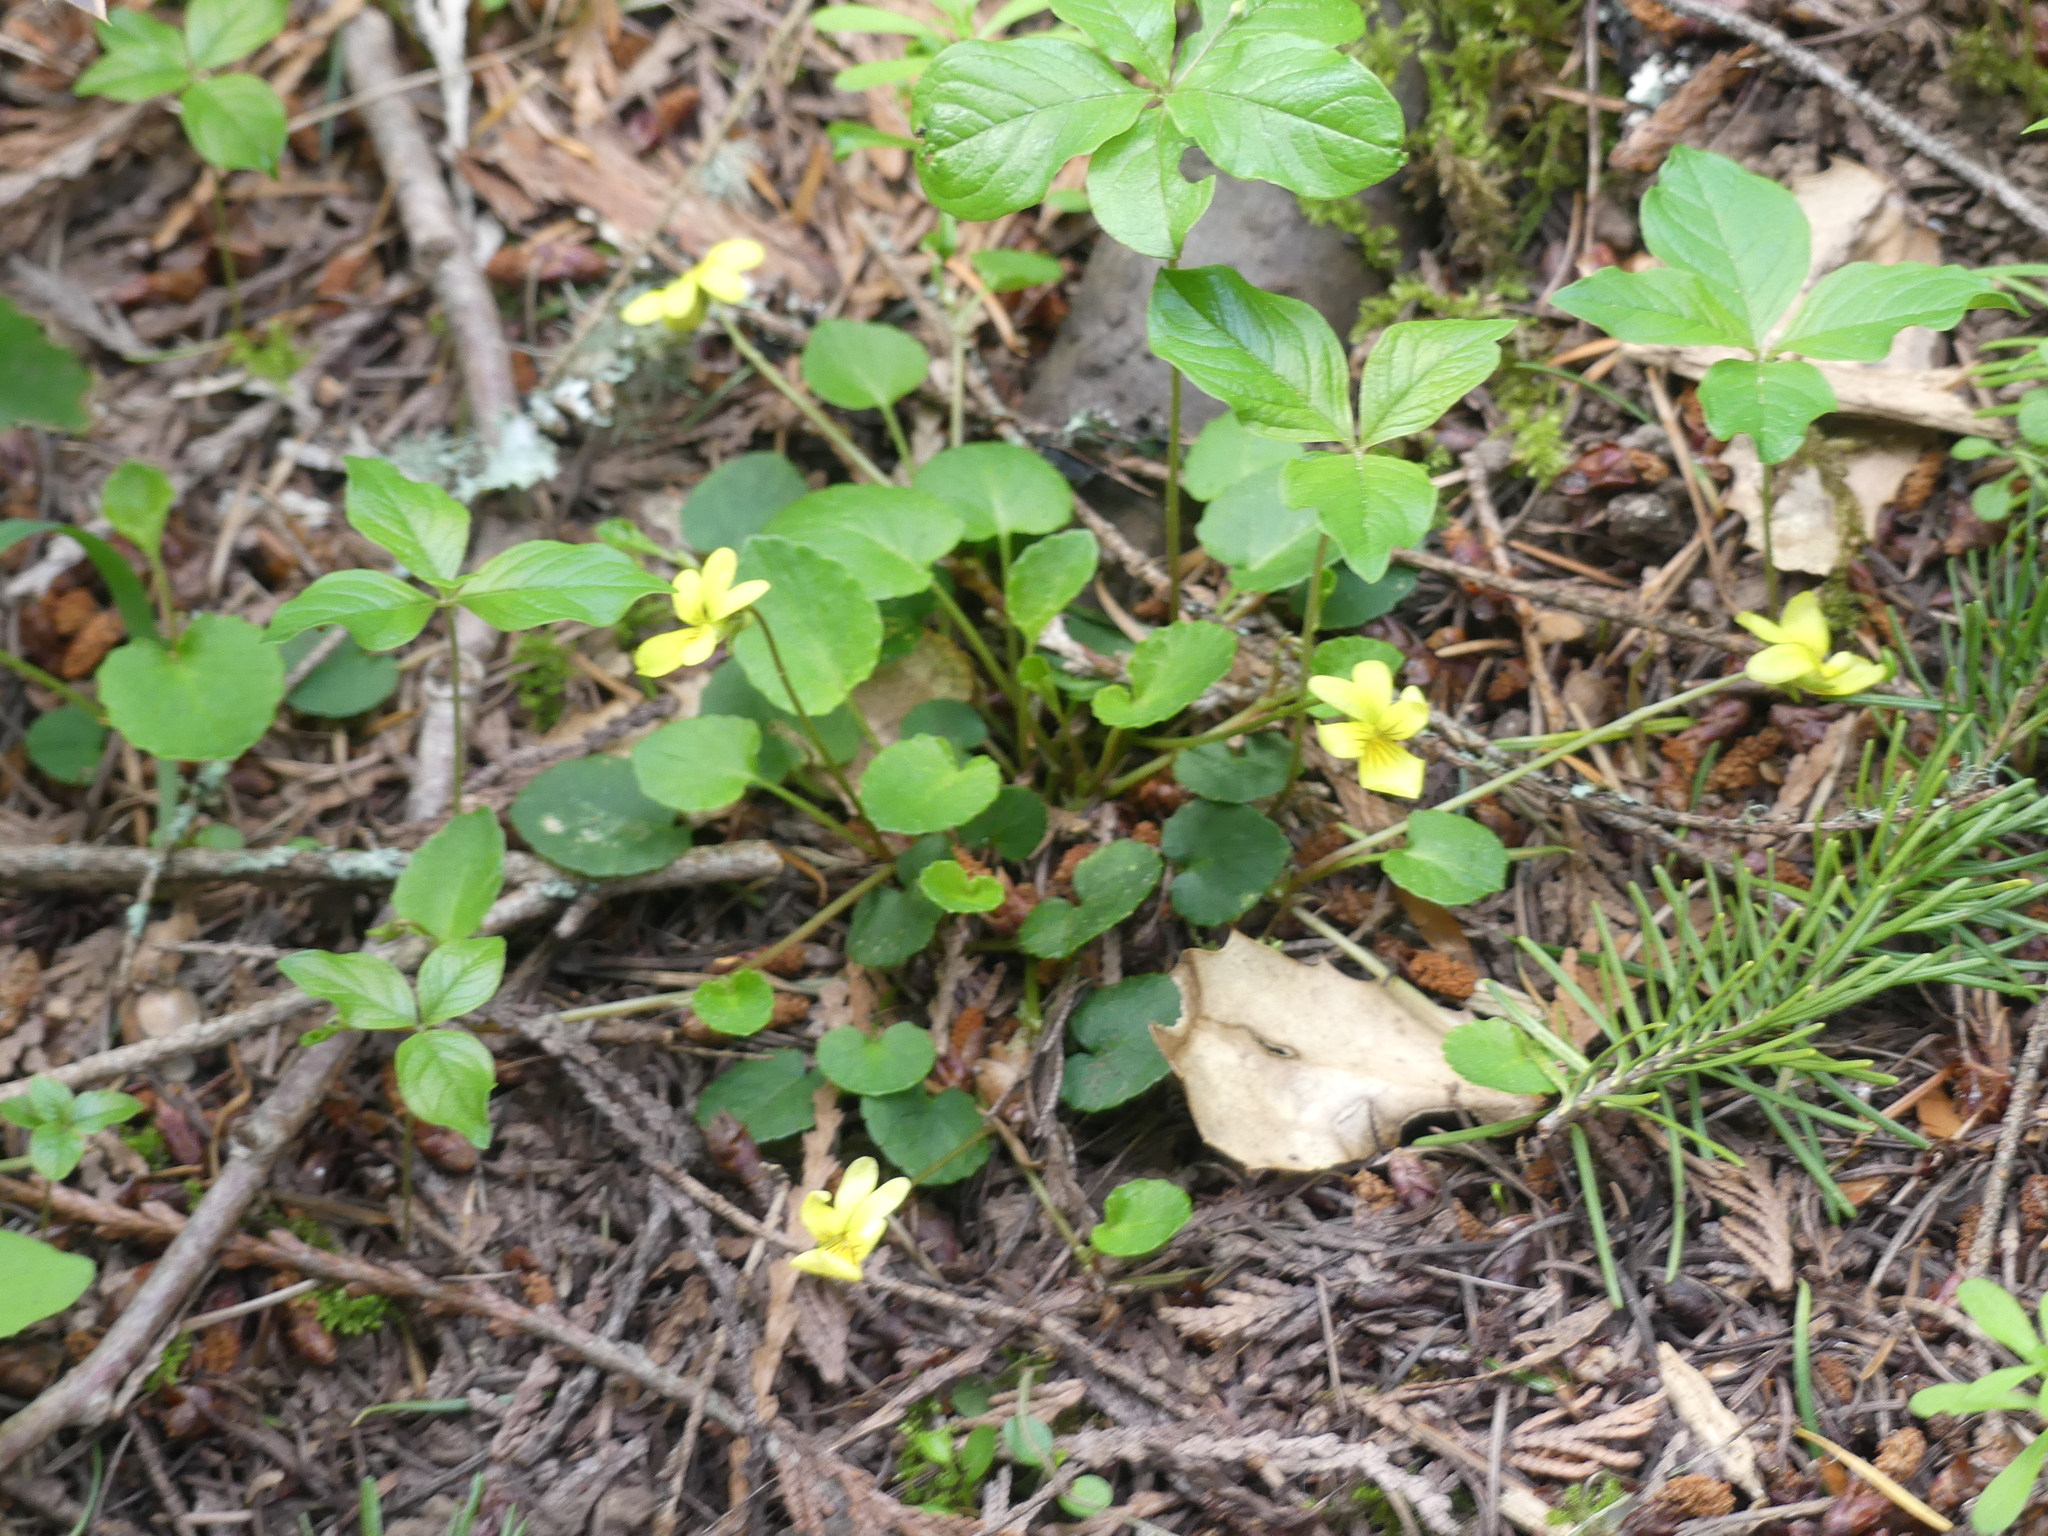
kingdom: Plantae
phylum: Tracheophyta
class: Magnoliopsida
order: Malpighiales
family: Violaceae
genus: Viola
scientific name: Viola sempervirens
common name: Evergreen violet
